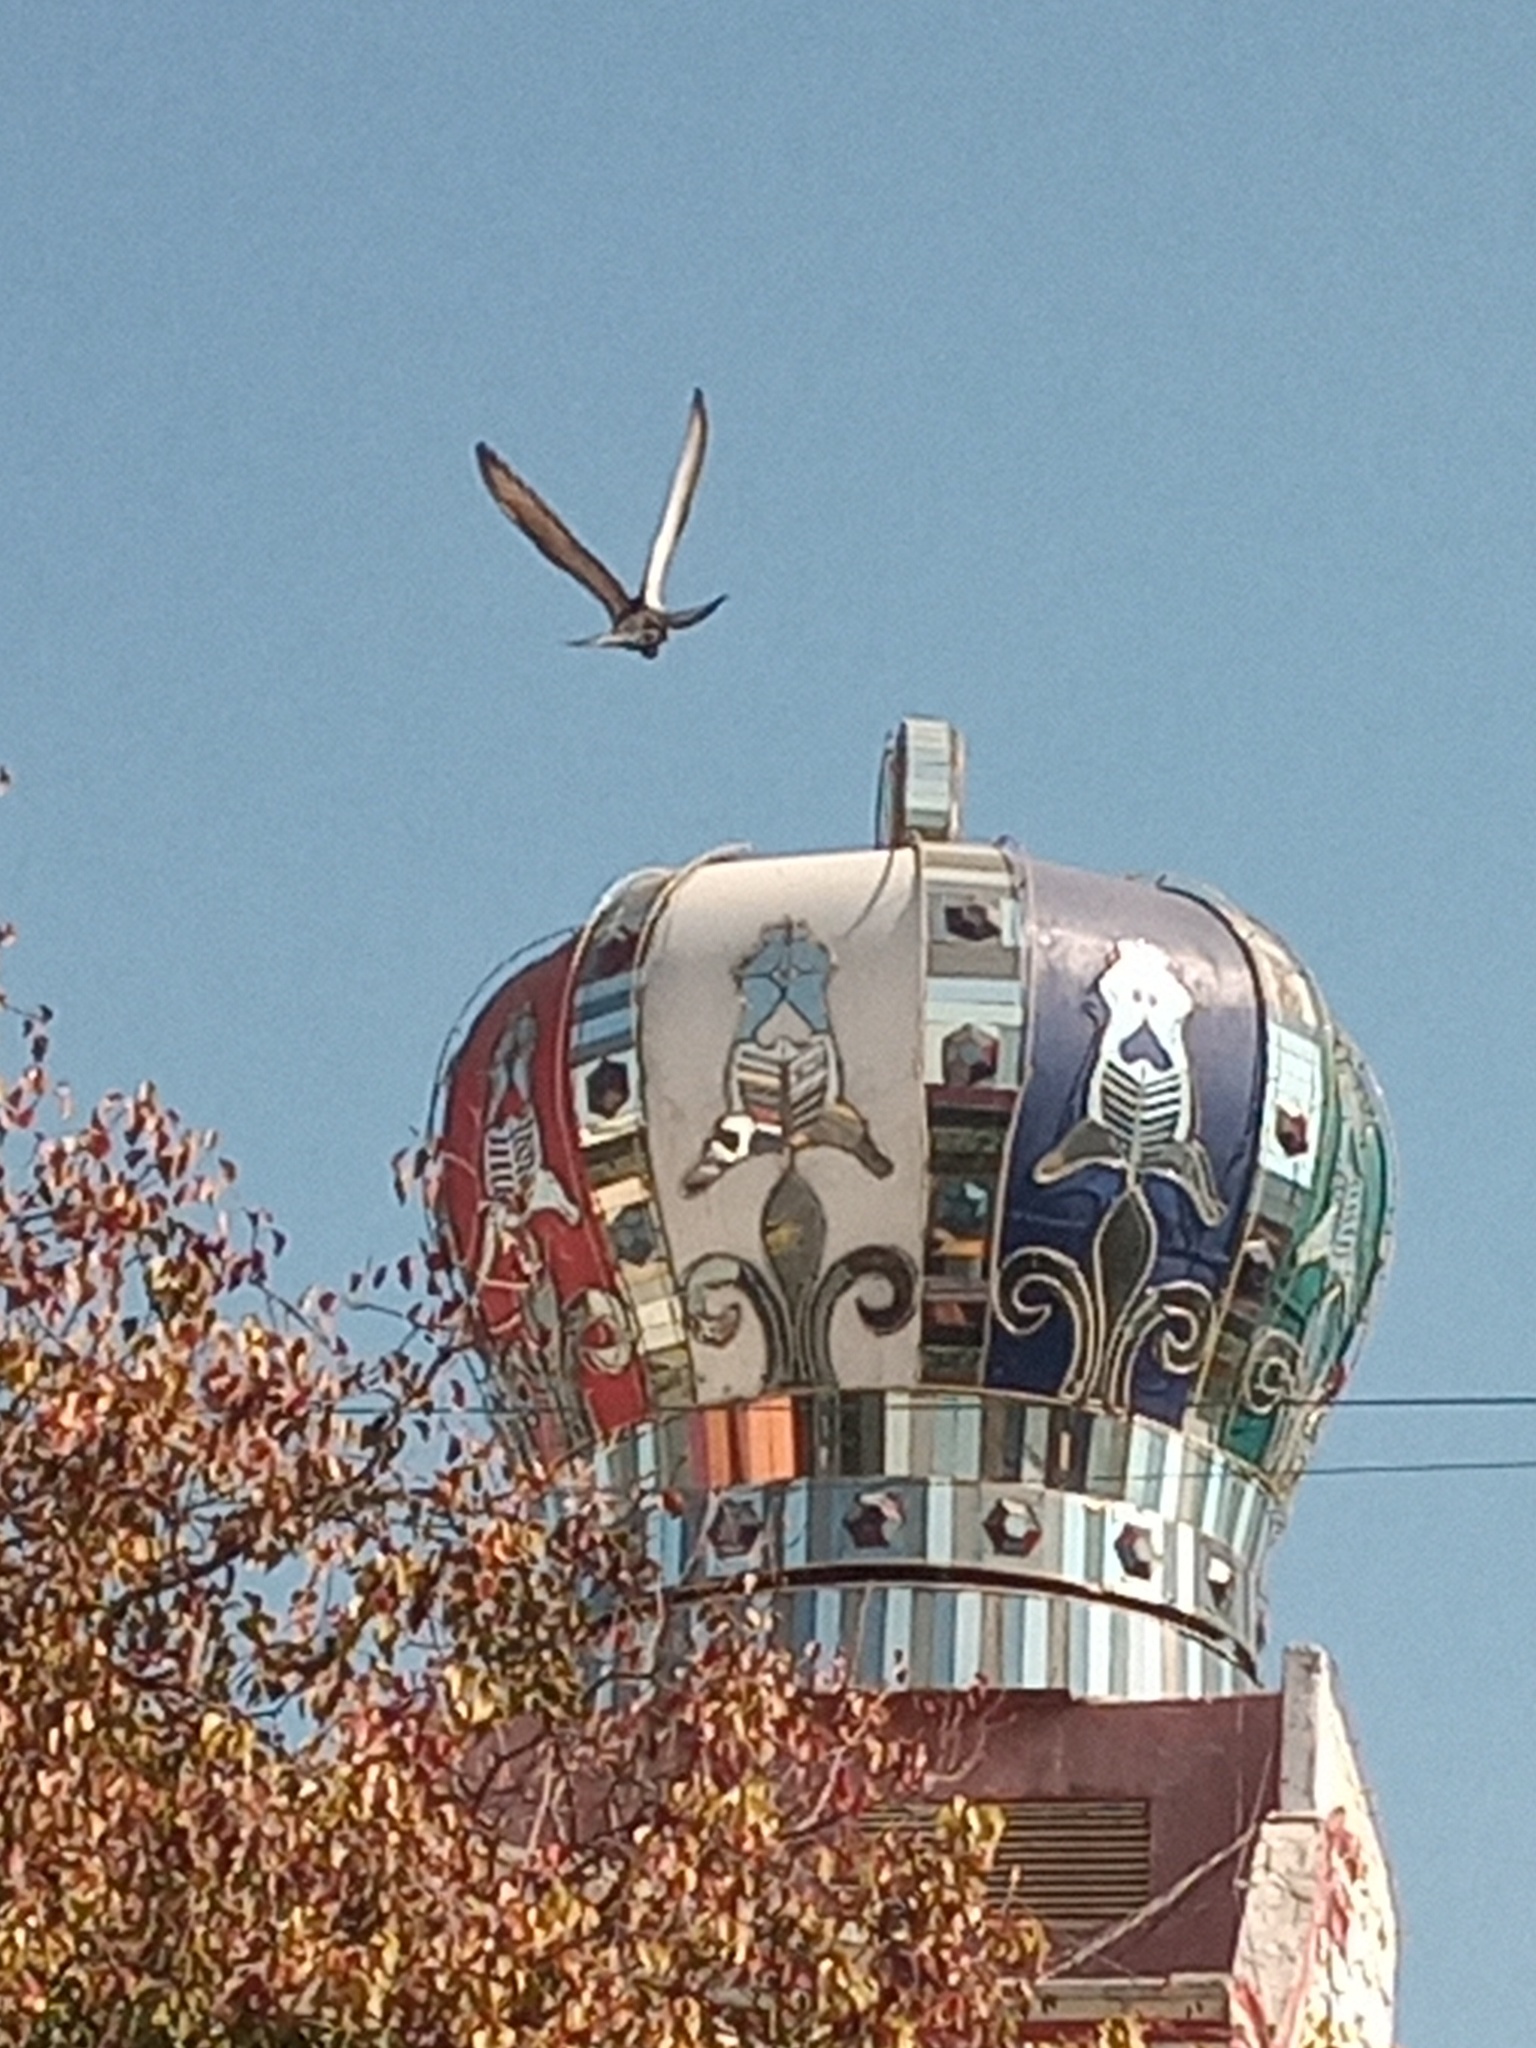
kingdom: Animalia
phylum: Chordata
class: Aves
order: Columbiformes
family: Columbidae
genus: Columba
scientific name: Columba livia
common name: Rock pigeon
